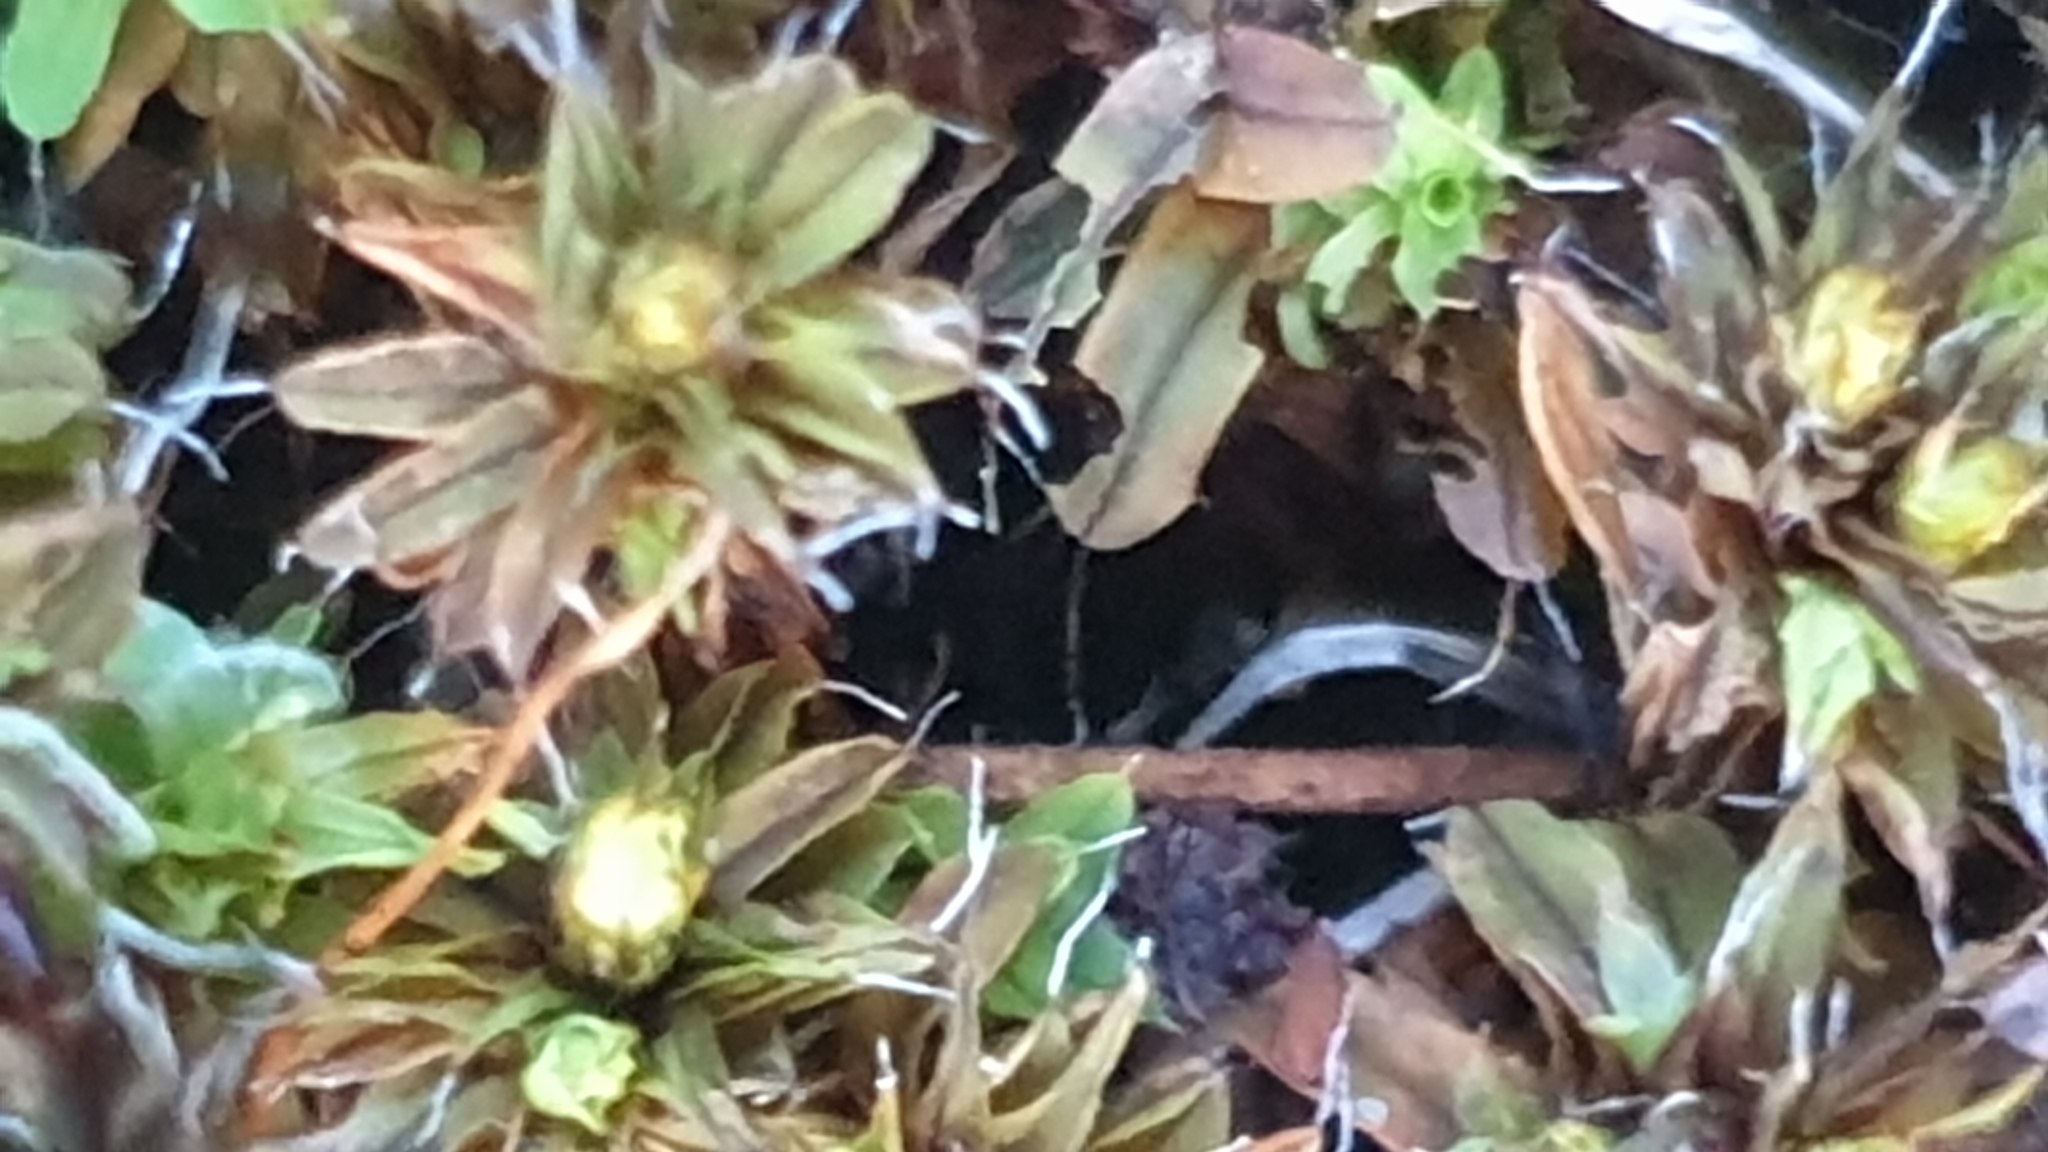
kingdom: Plantae
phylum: Bryophyta
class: Bryopsida
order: Pottiales
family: Pottiaceae
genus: Syntrichia
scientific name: Syntrichia antarctica
